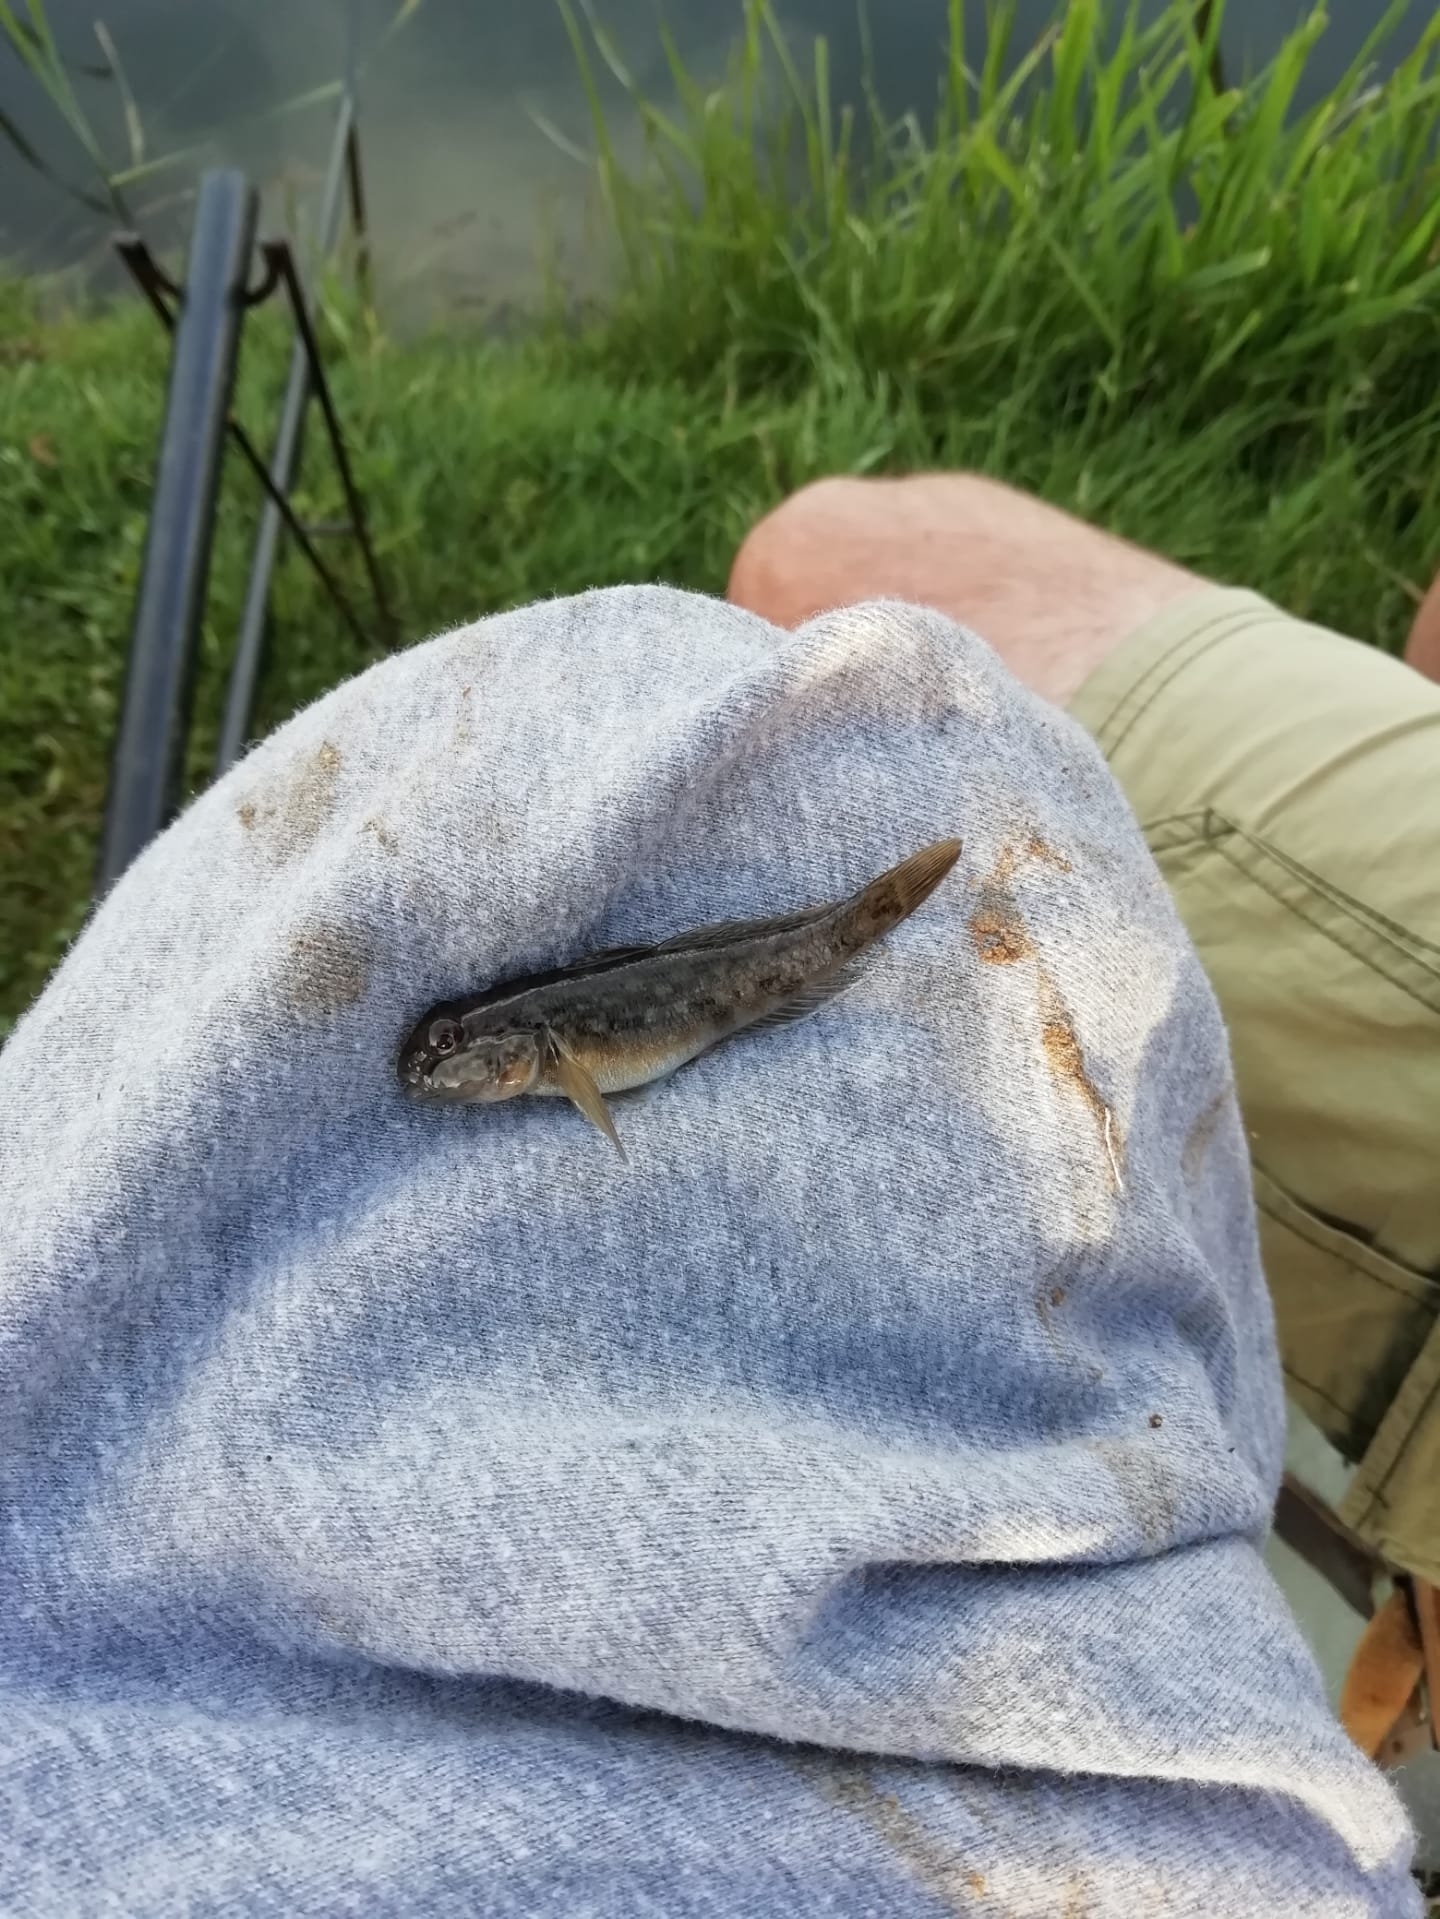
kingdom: Animalia
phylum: Chordata
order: Perciformes
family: Gobiidae
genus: Neogobius
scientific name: Neogobius melanostomus
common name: Round goby
